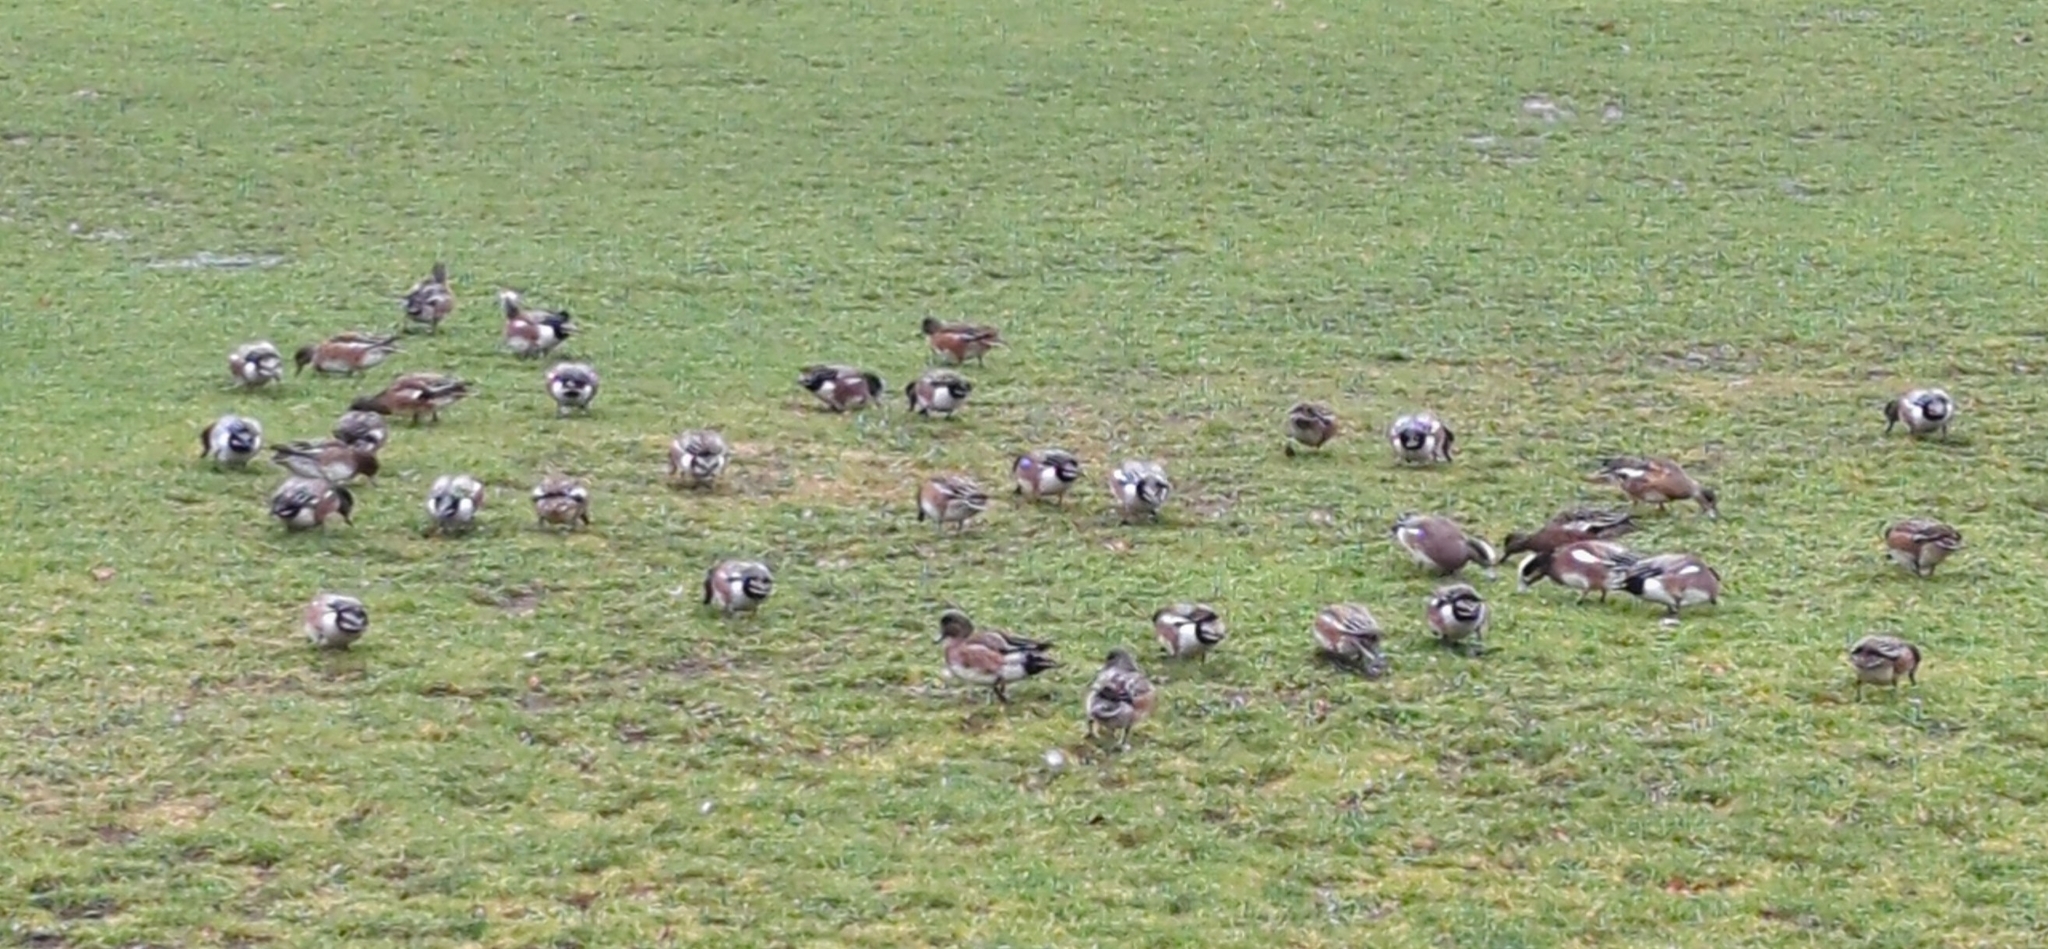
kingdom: Animalia
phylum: Chordata
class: Aves
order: Anseriformes
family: Anatidae
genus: Mareca
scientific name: Mareca americana
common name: American wigeon
